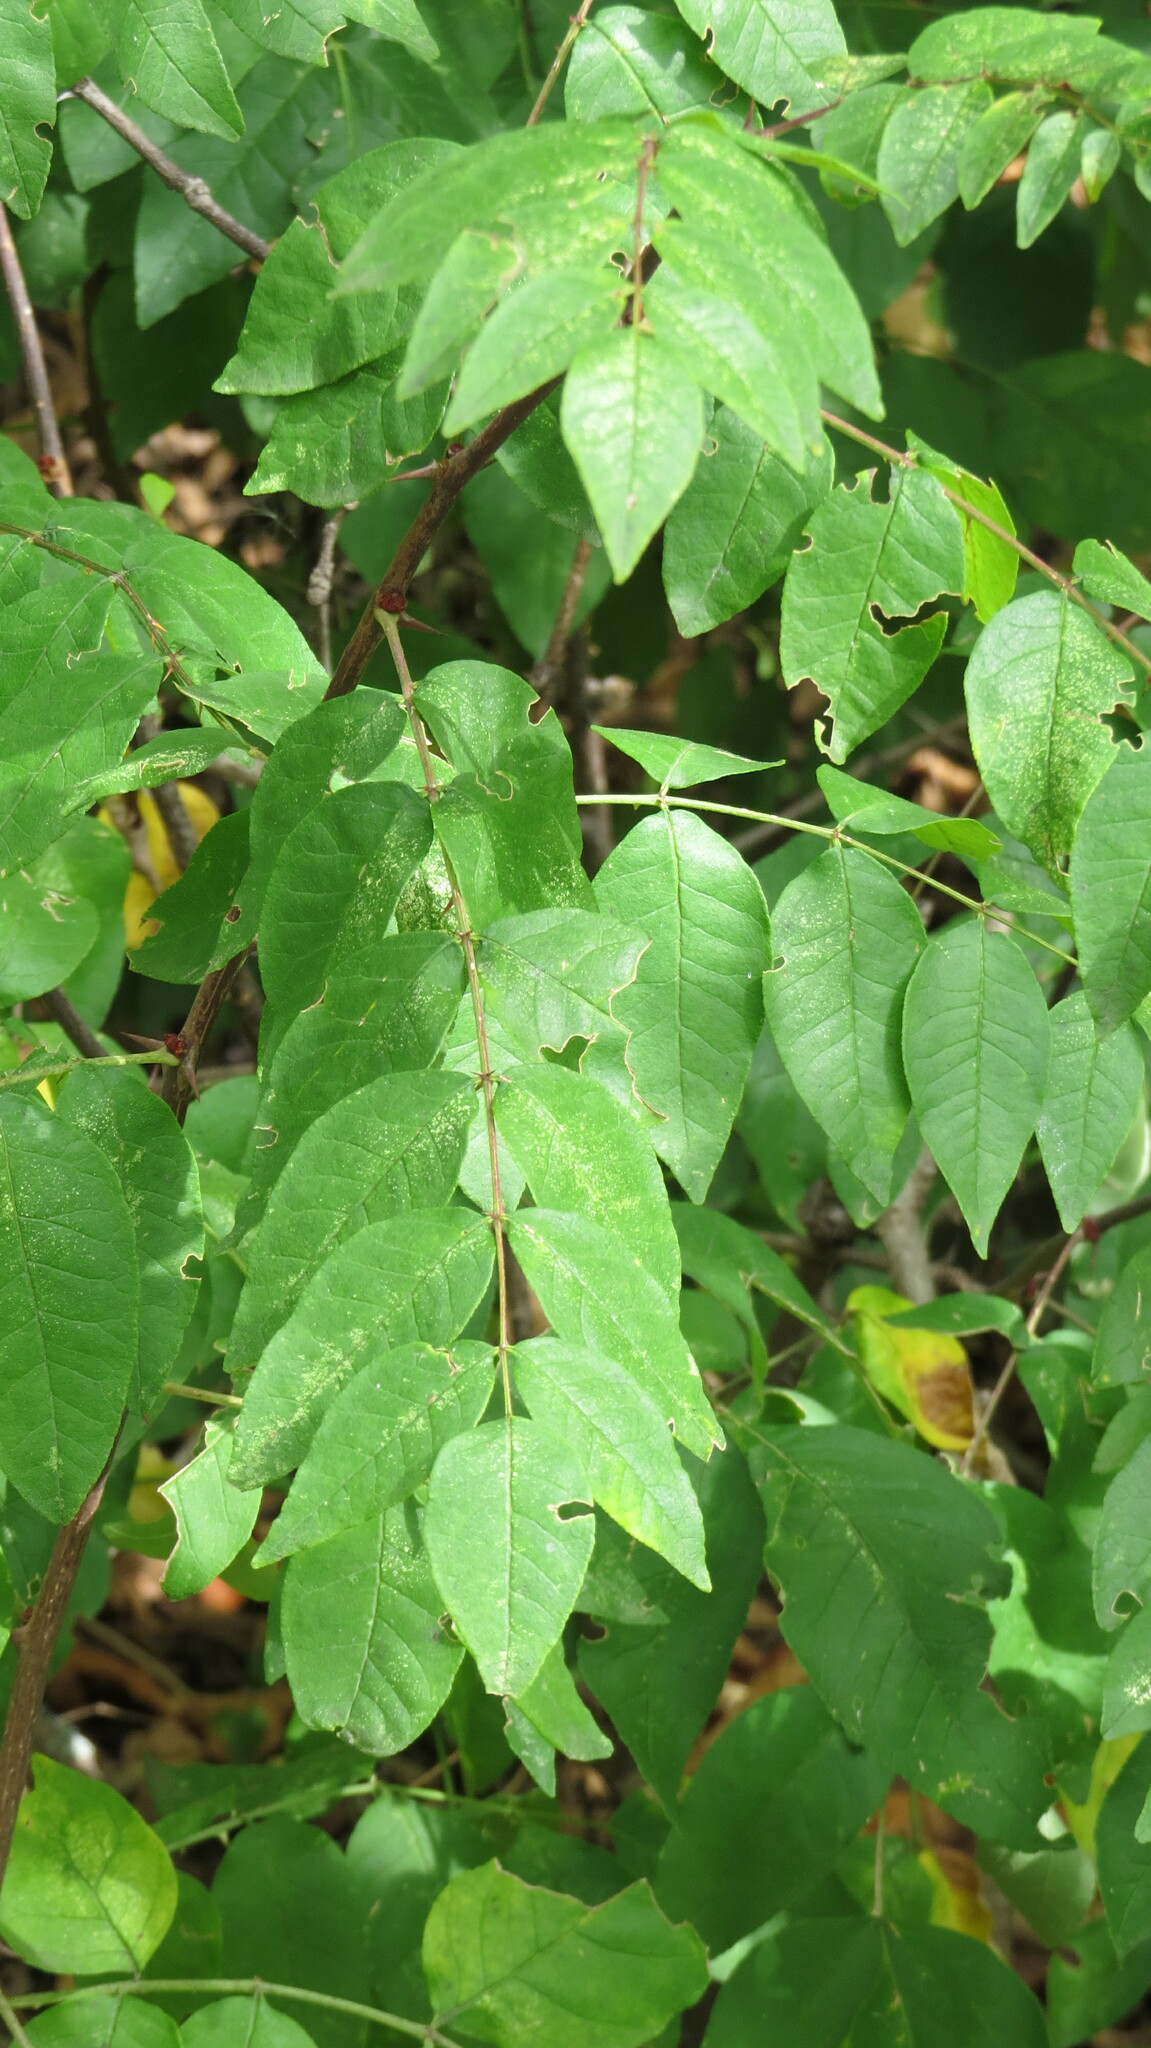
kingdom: Plantae
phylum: Tracheophyta
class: Magnoliopsida
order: Sapindales
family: Rutaceae
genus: Zanthoxylum
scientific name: Zanthoxylum americanum
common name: Northern prickly-ash
